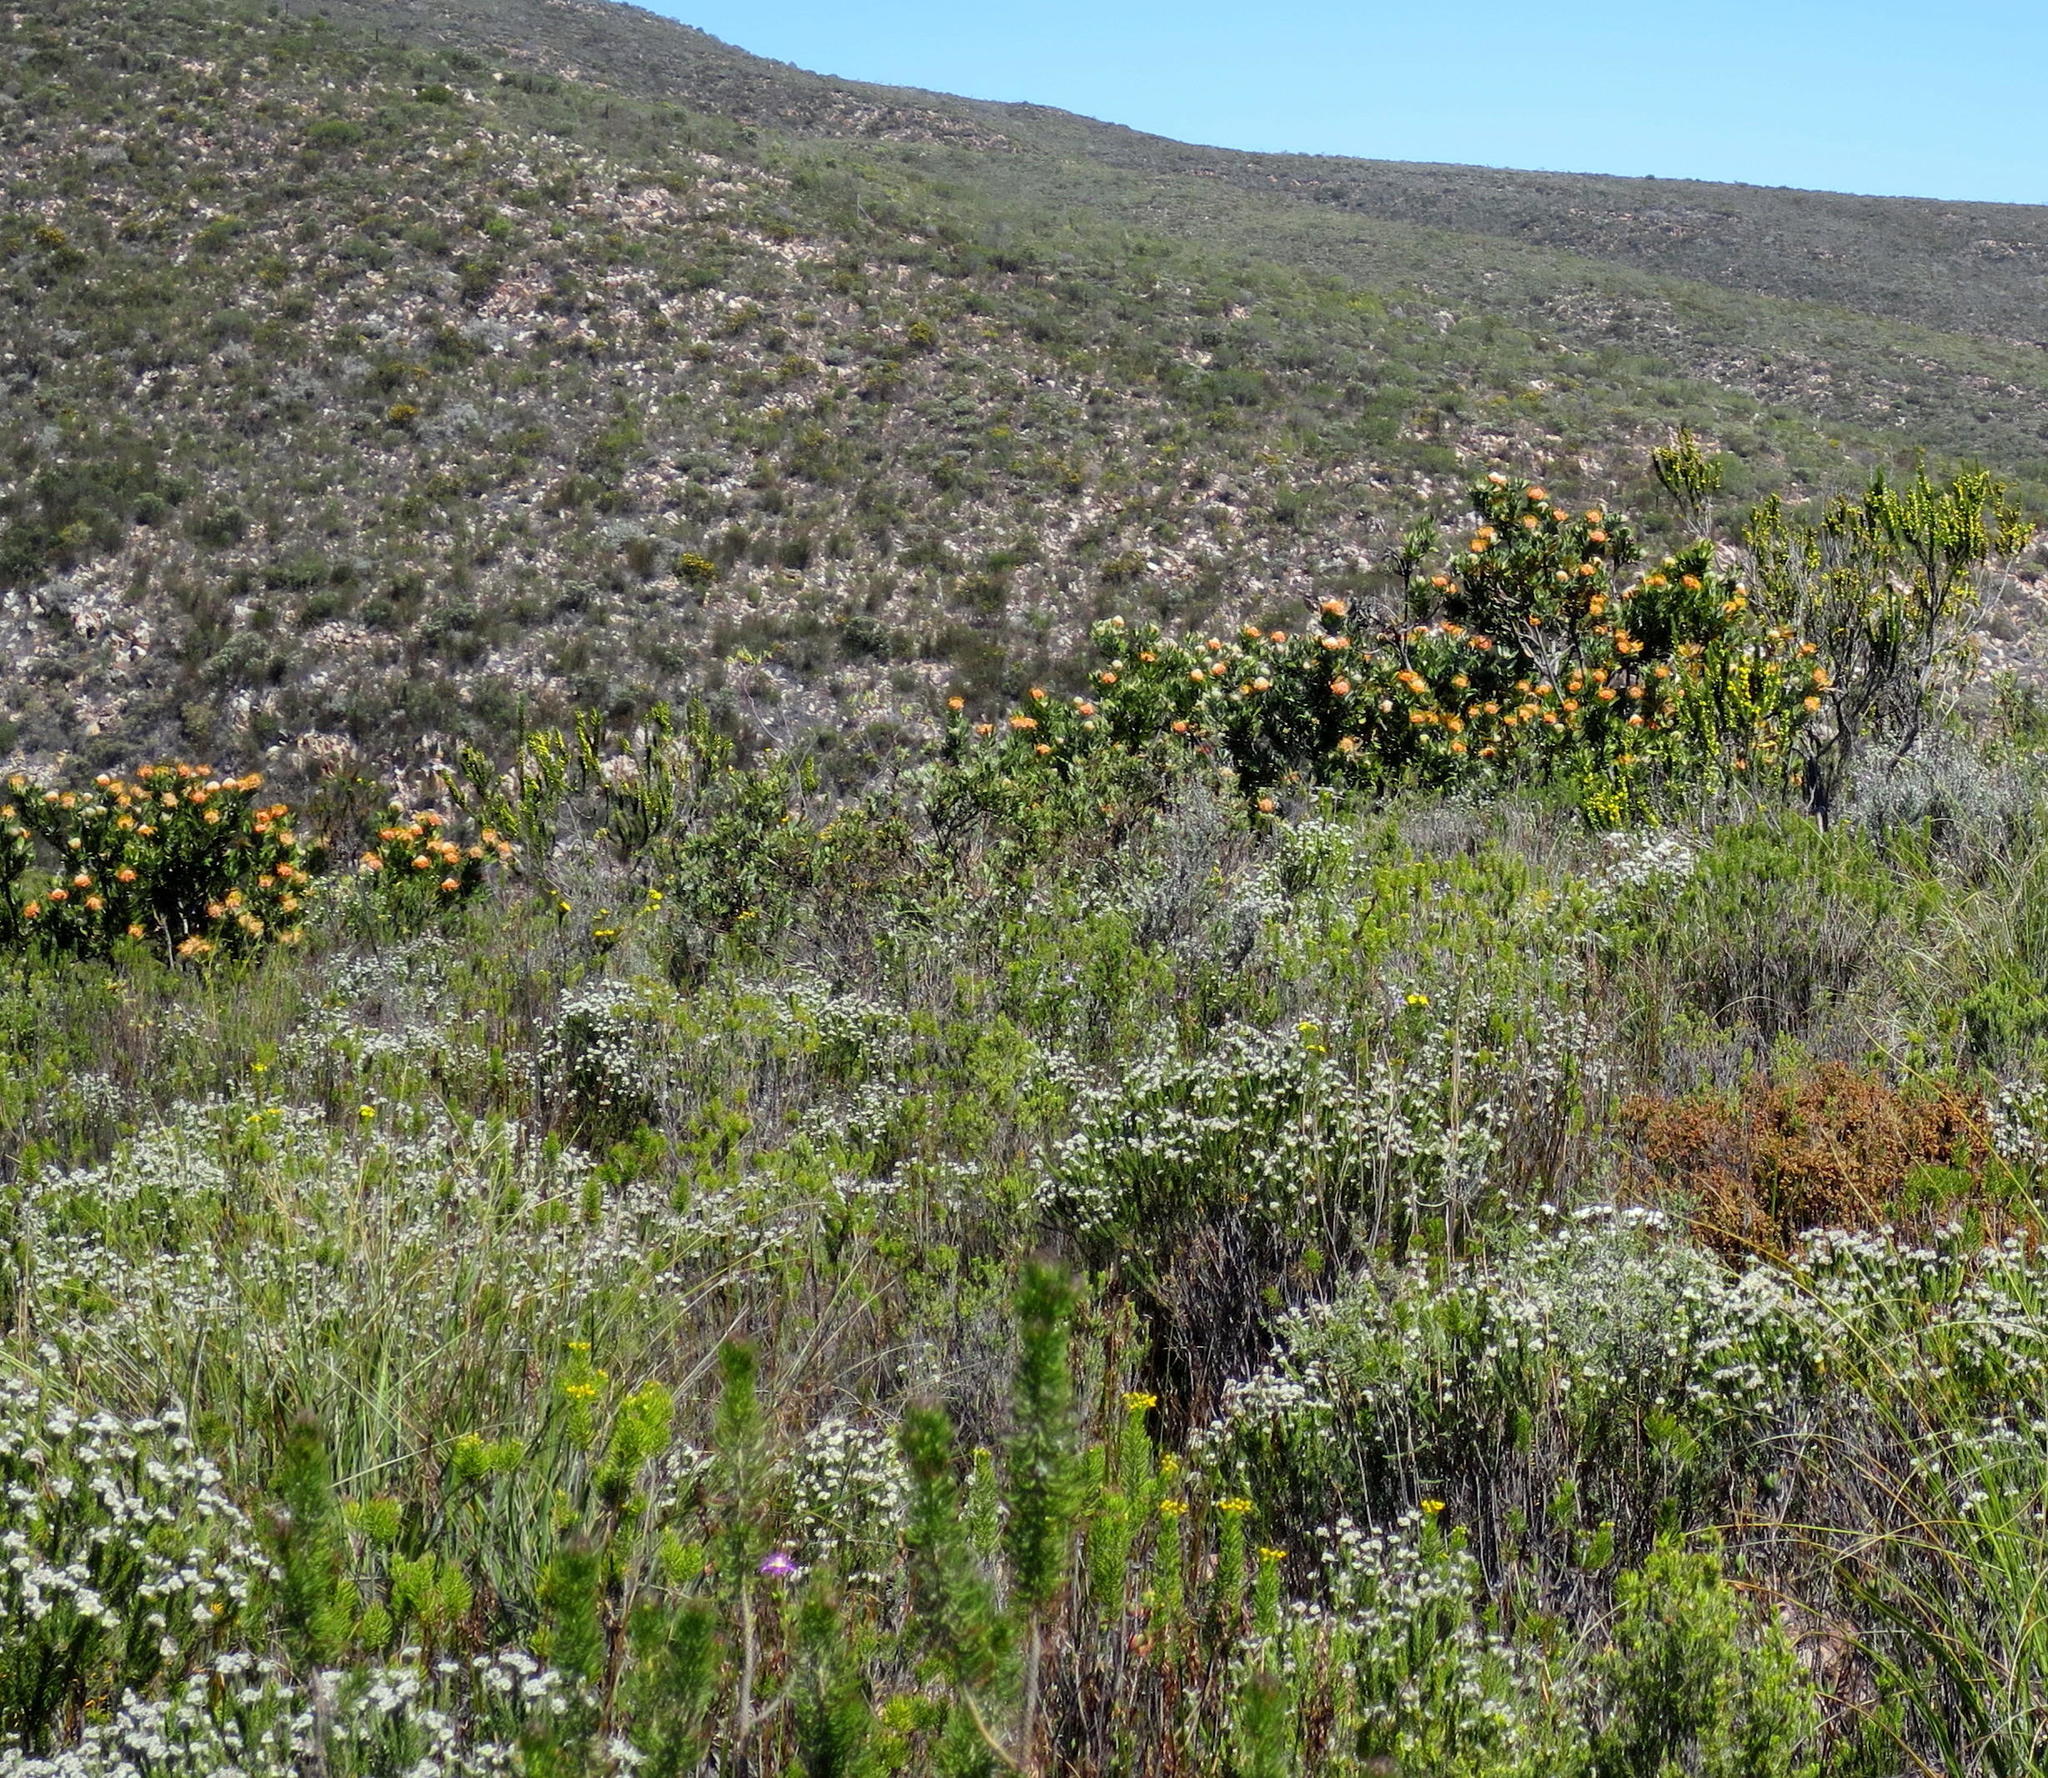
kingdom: Plantae
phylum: Tracheophyta
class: Magnoliopsida
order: Proteales
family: Proteaceae
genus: Leucospermum
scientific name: Leucospermum pluridens
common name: Robinson pincushion
